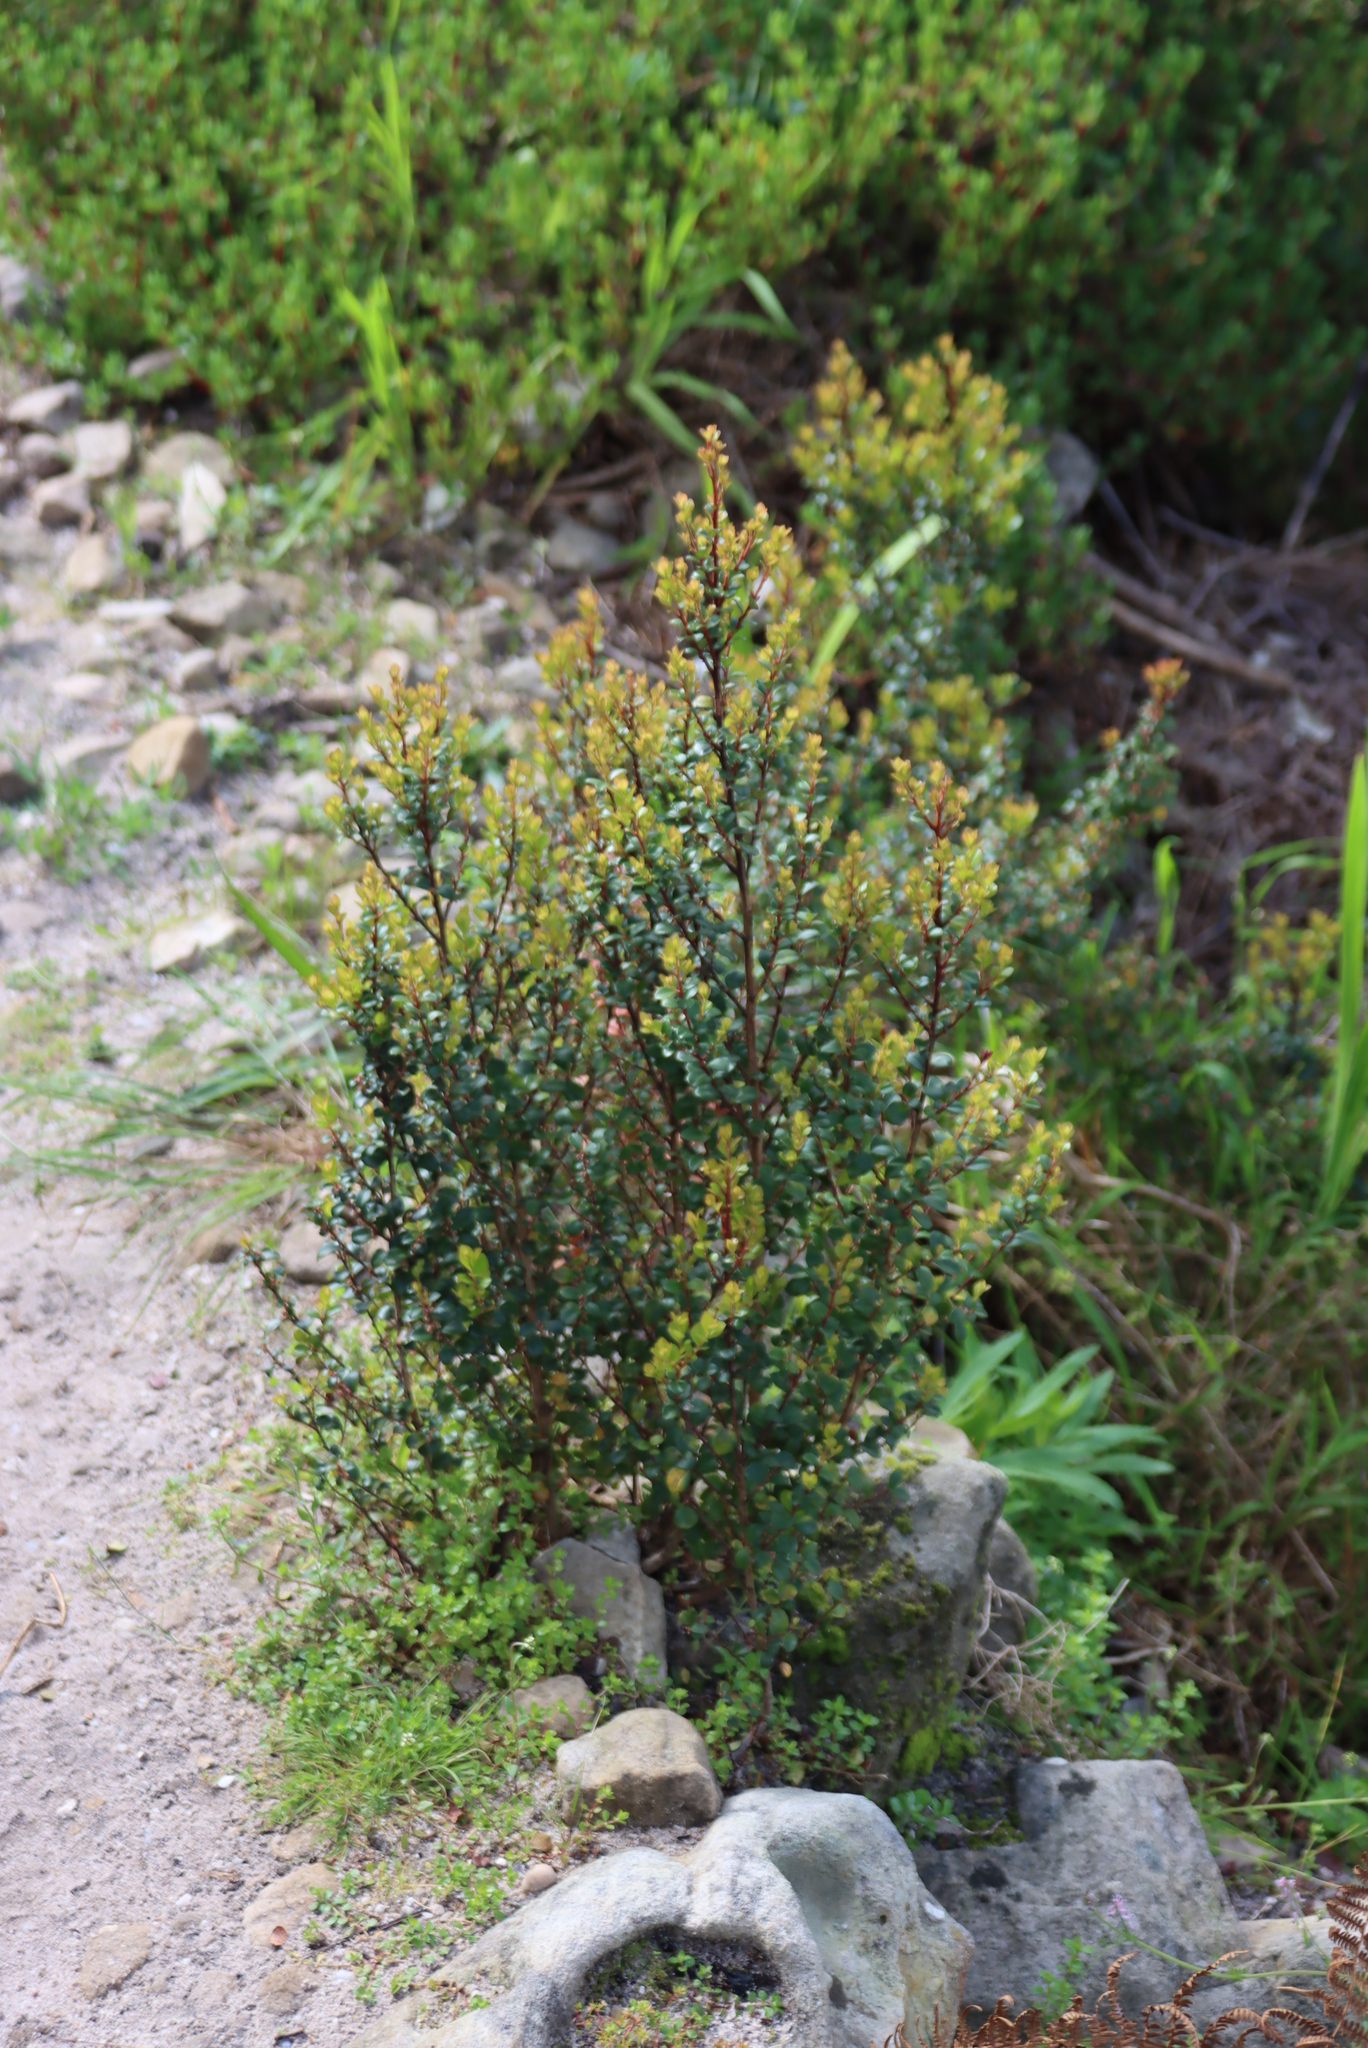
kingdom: Plantae
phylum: Tracheophyta
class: Magnoliopsida
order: Ericales
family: Primulaceae
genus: Myrsine
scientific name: Myrsine africana
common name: African-boxwood
